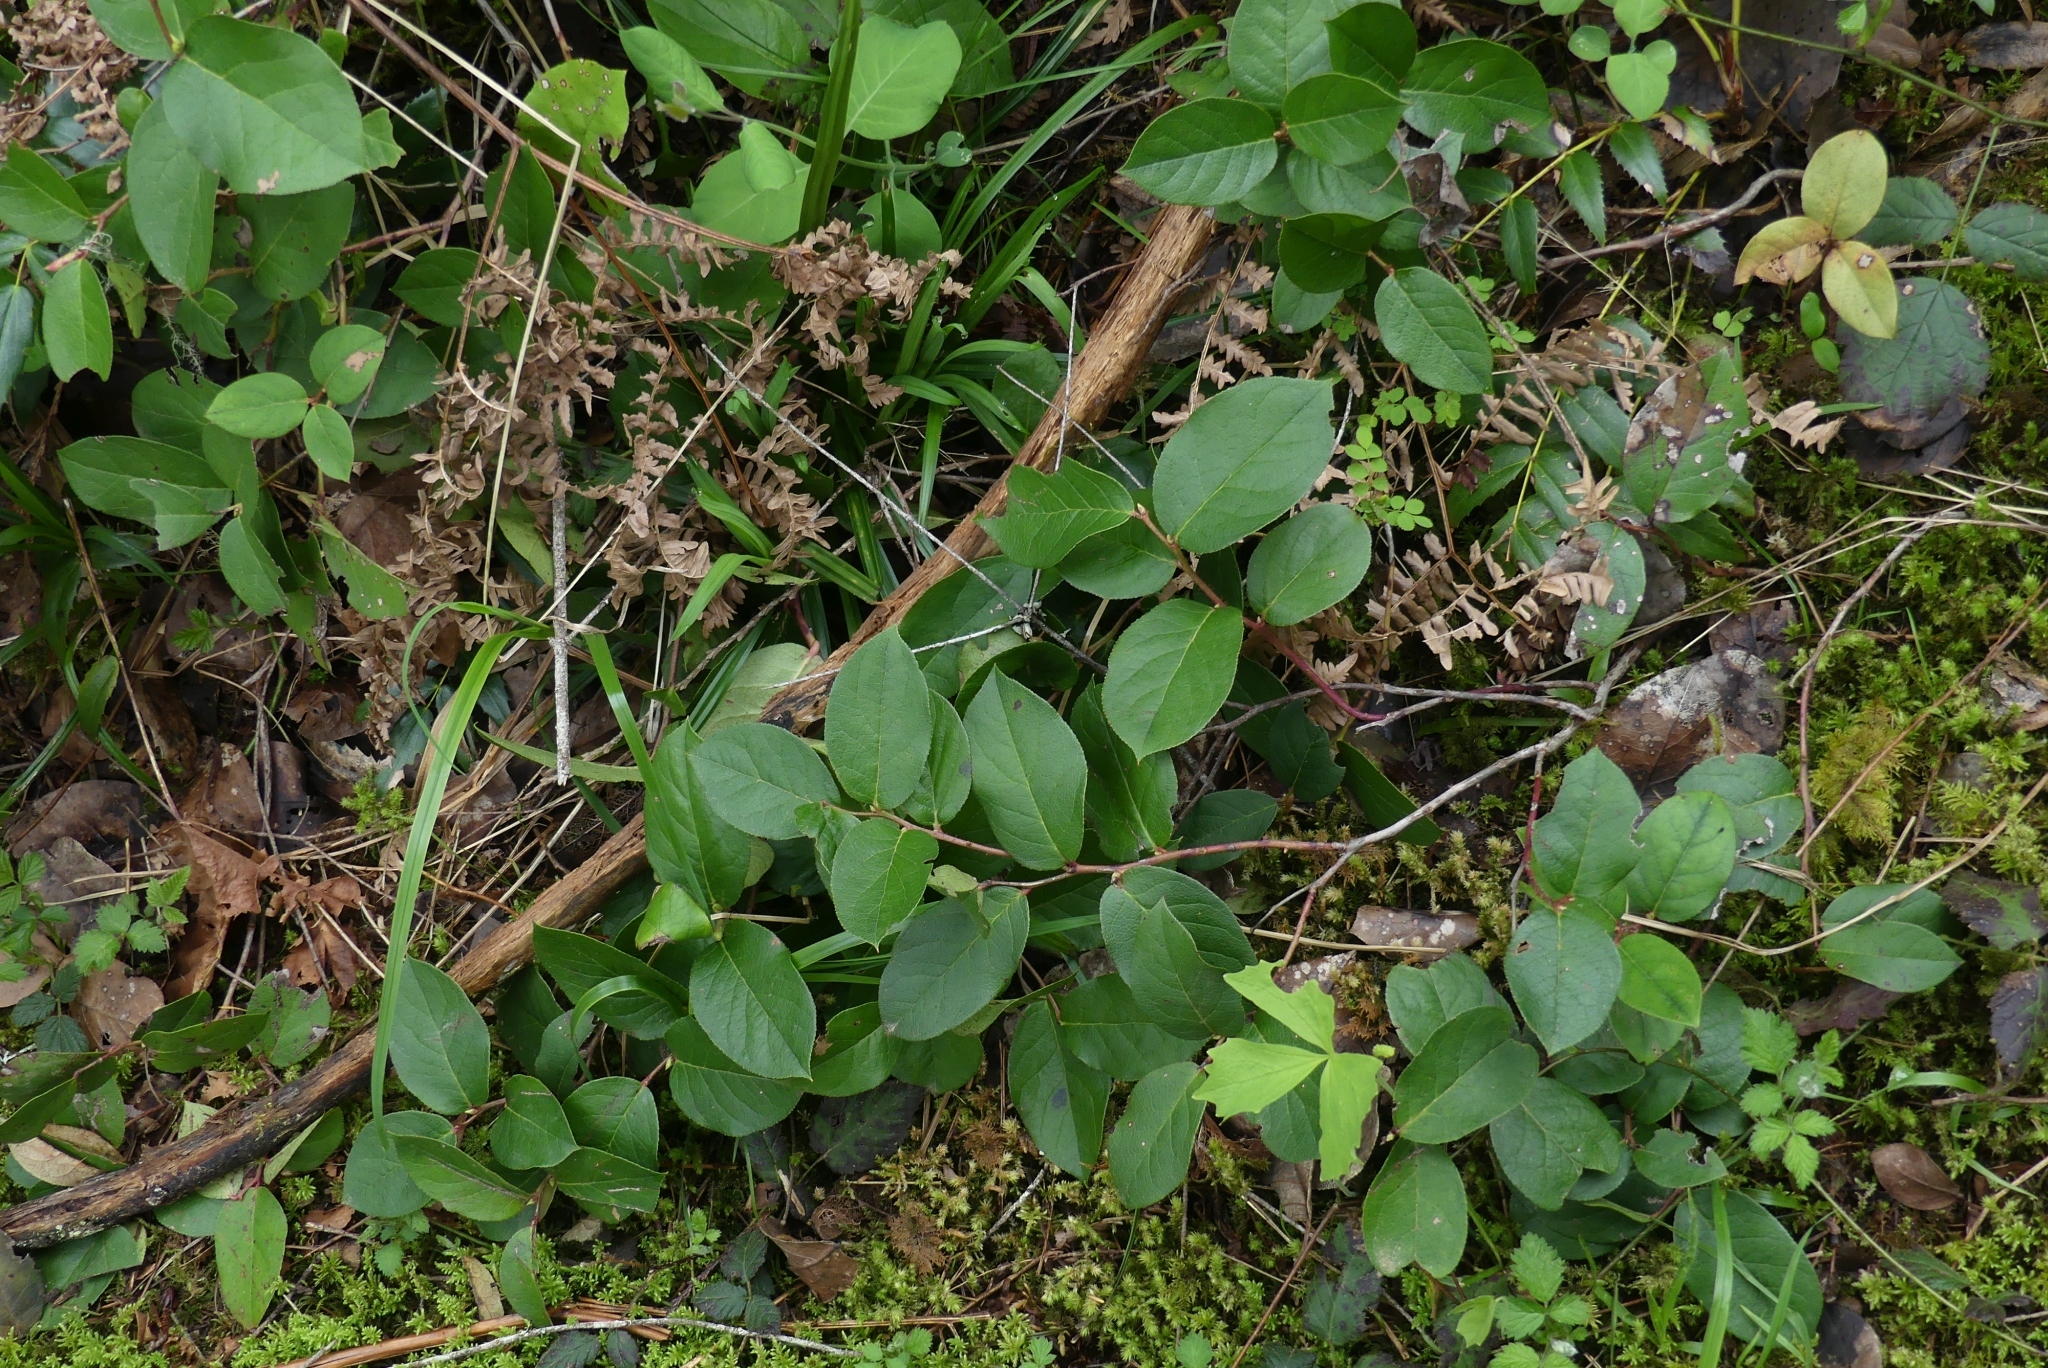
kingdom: Plantae
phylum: Tracheophyta
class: Magnoliopsida
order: Ericales
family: Ericaceae
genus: Gaultheria
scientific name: Gaultheria shallon
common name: Shallon
